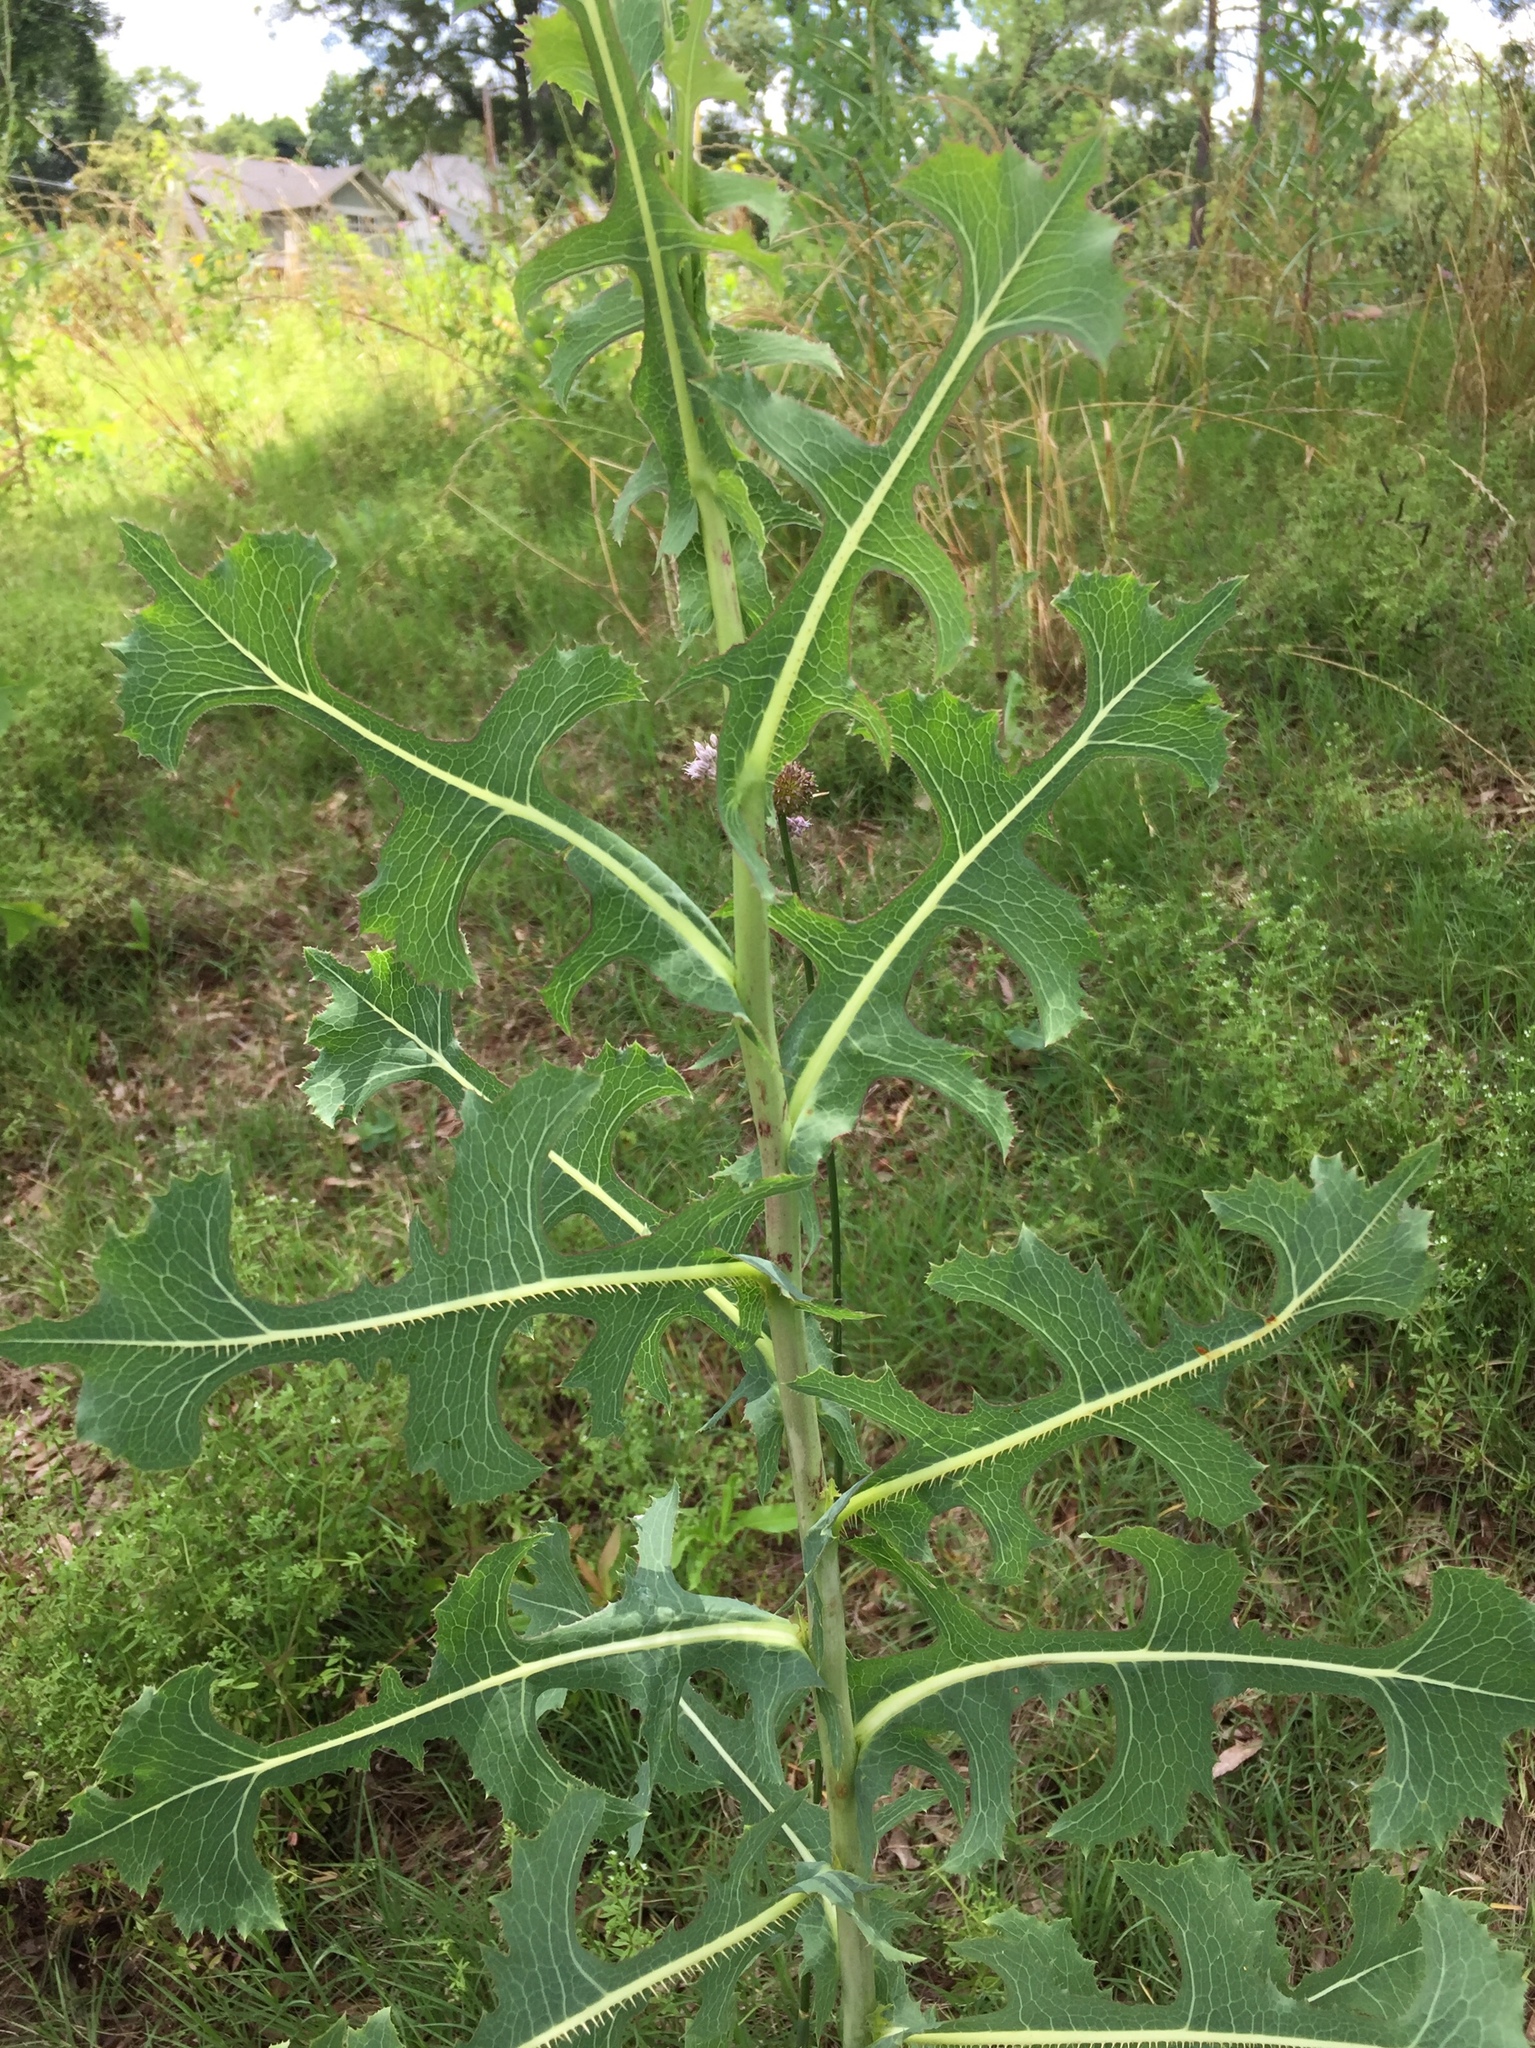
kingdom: Plantae
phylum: Tracheophyta
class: Magnoliopsida
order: Asterales
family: Asteraceae
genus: Lactuca
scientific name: Lactuca serriola
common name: Prickly lettuce
